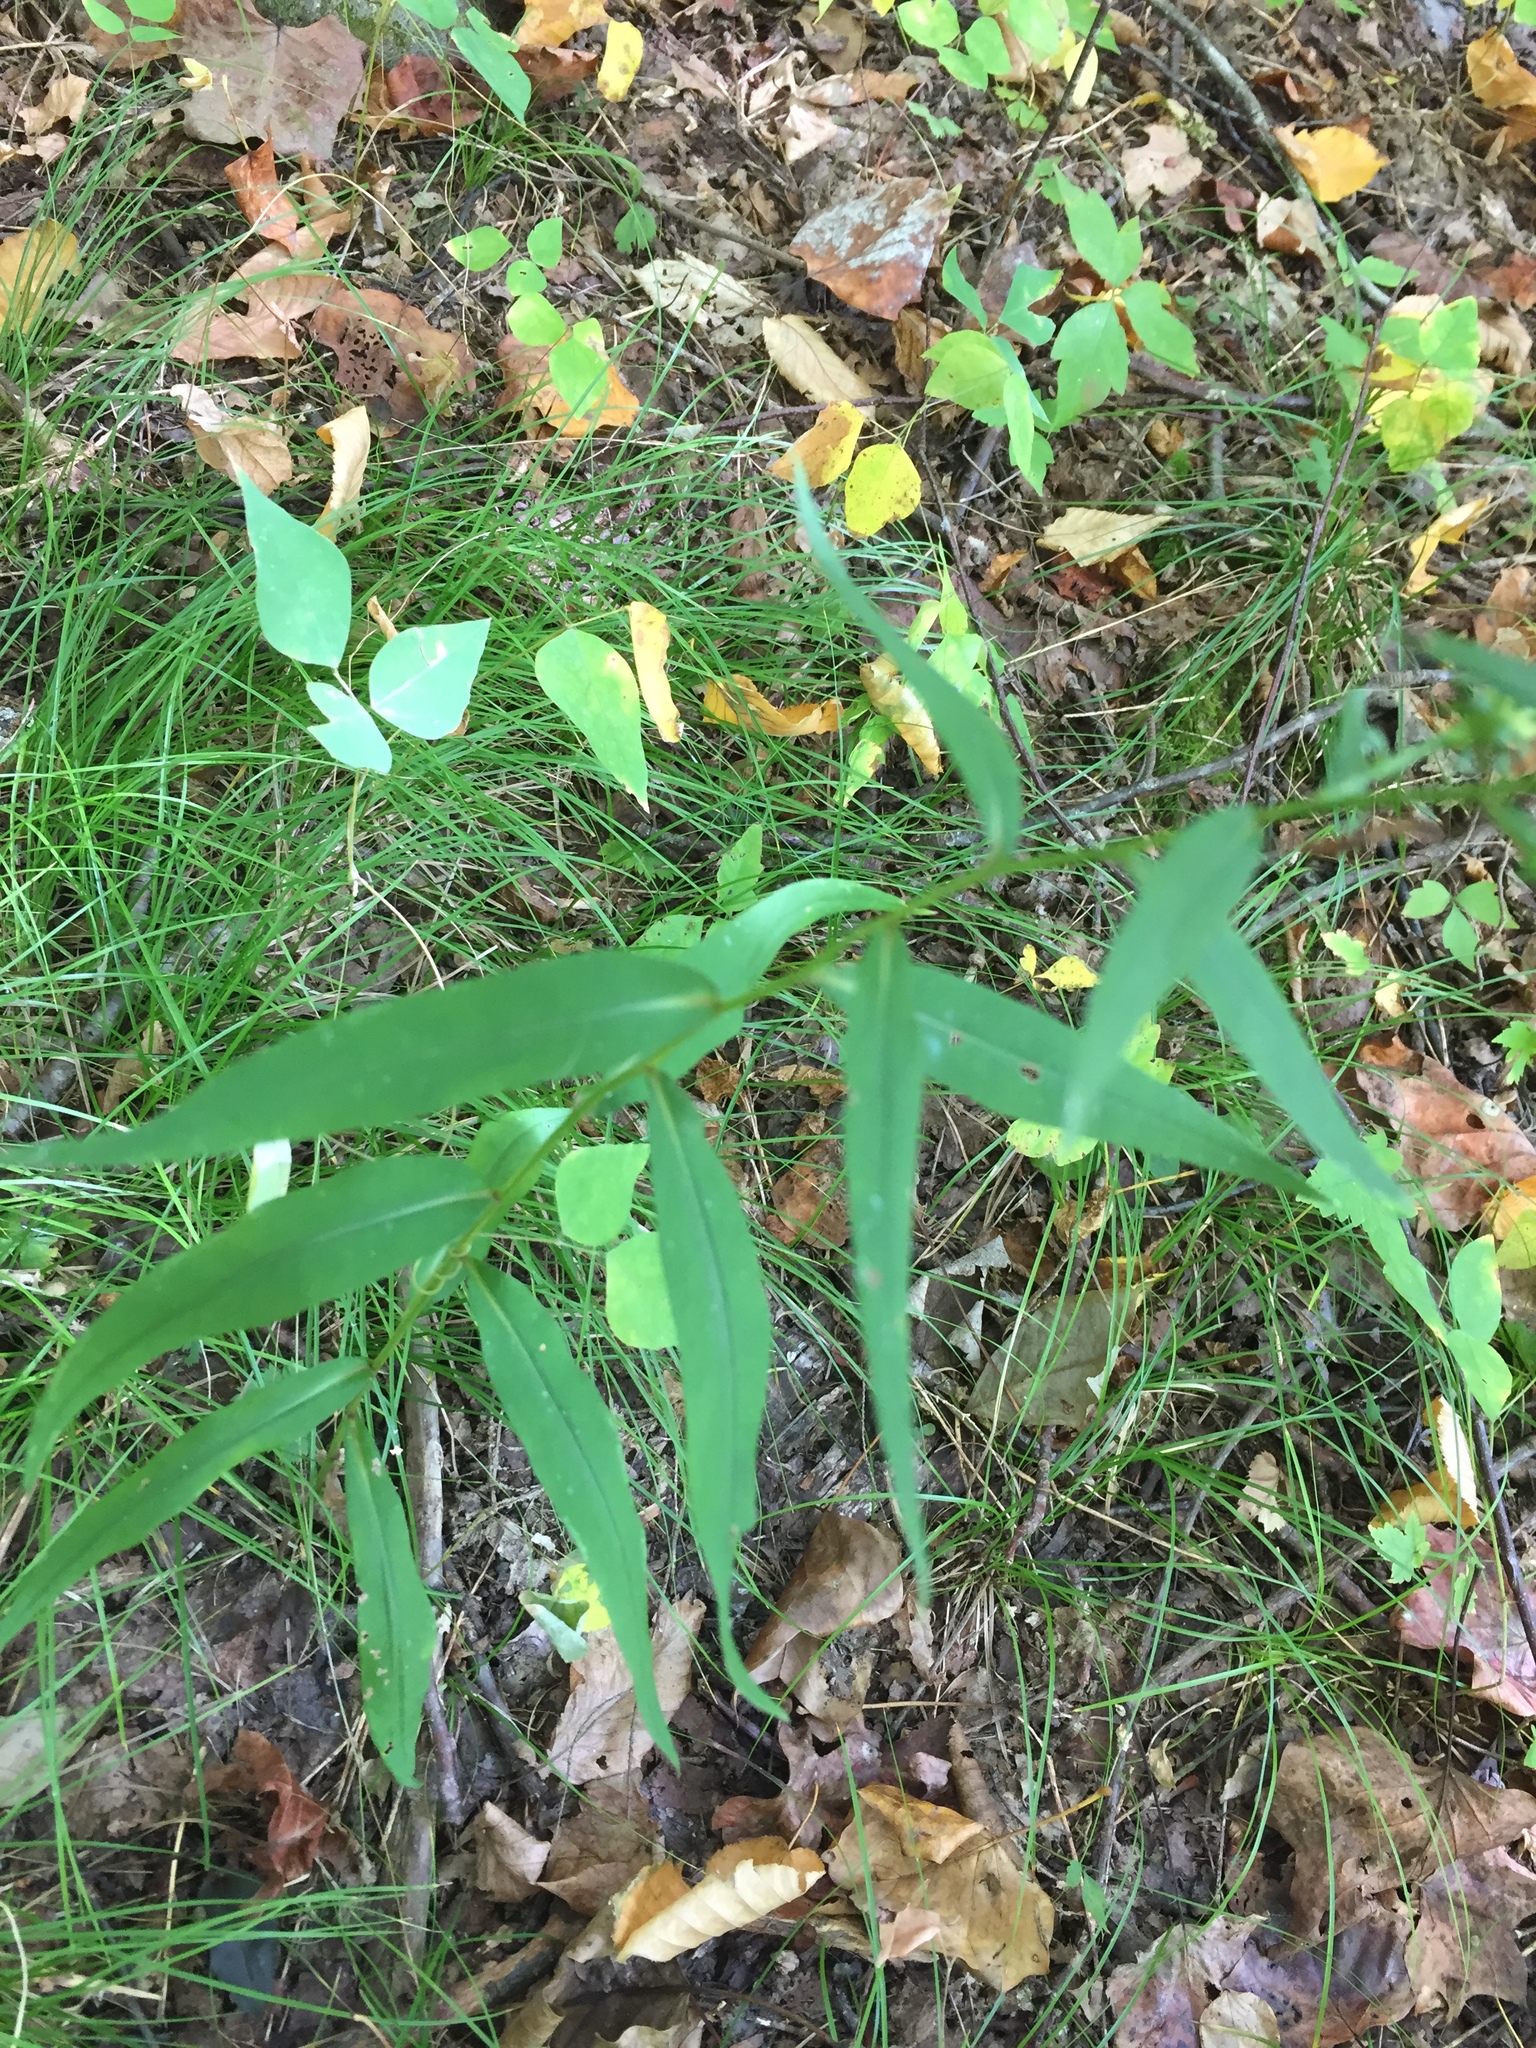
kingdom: Plantae
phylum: Tracheophyta
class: Magnoliopsida
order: Asterales
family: Asteraceae
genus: Symphyotrichum
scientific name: Symphyotrichum retroflexum
